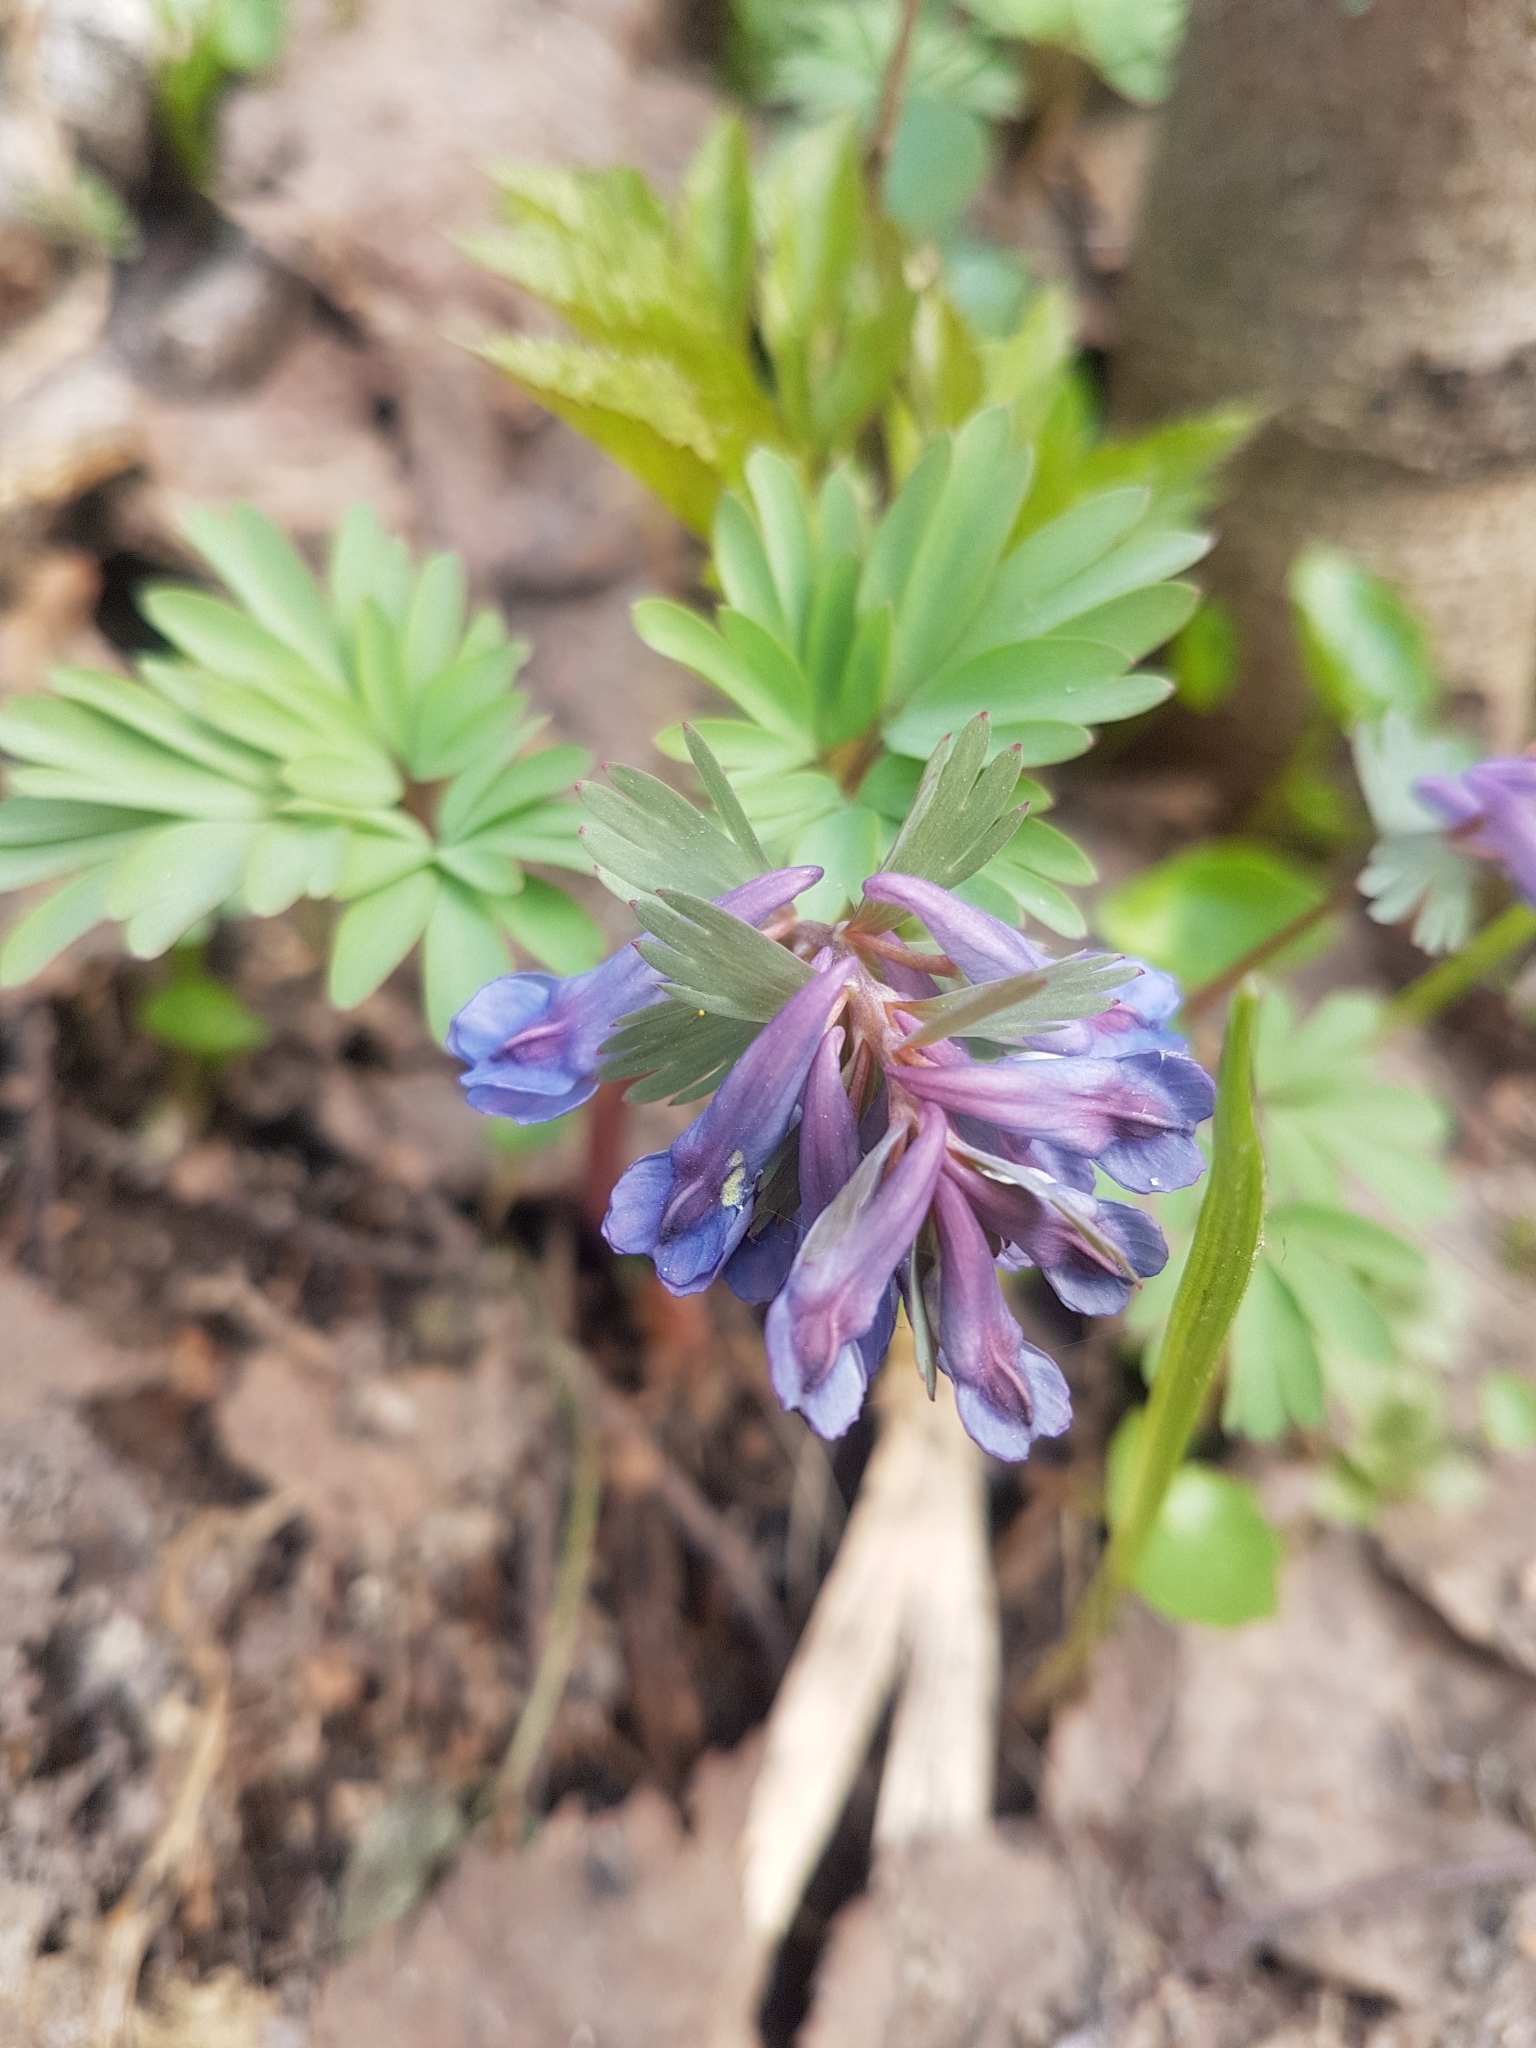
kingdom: Plantae
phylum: Tracheophyta
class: Magnoliopsida
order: Ranunculales
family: Papaveraceae
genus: Corydalis
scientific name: Corydalis solida
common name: Bird-in-a-bush
